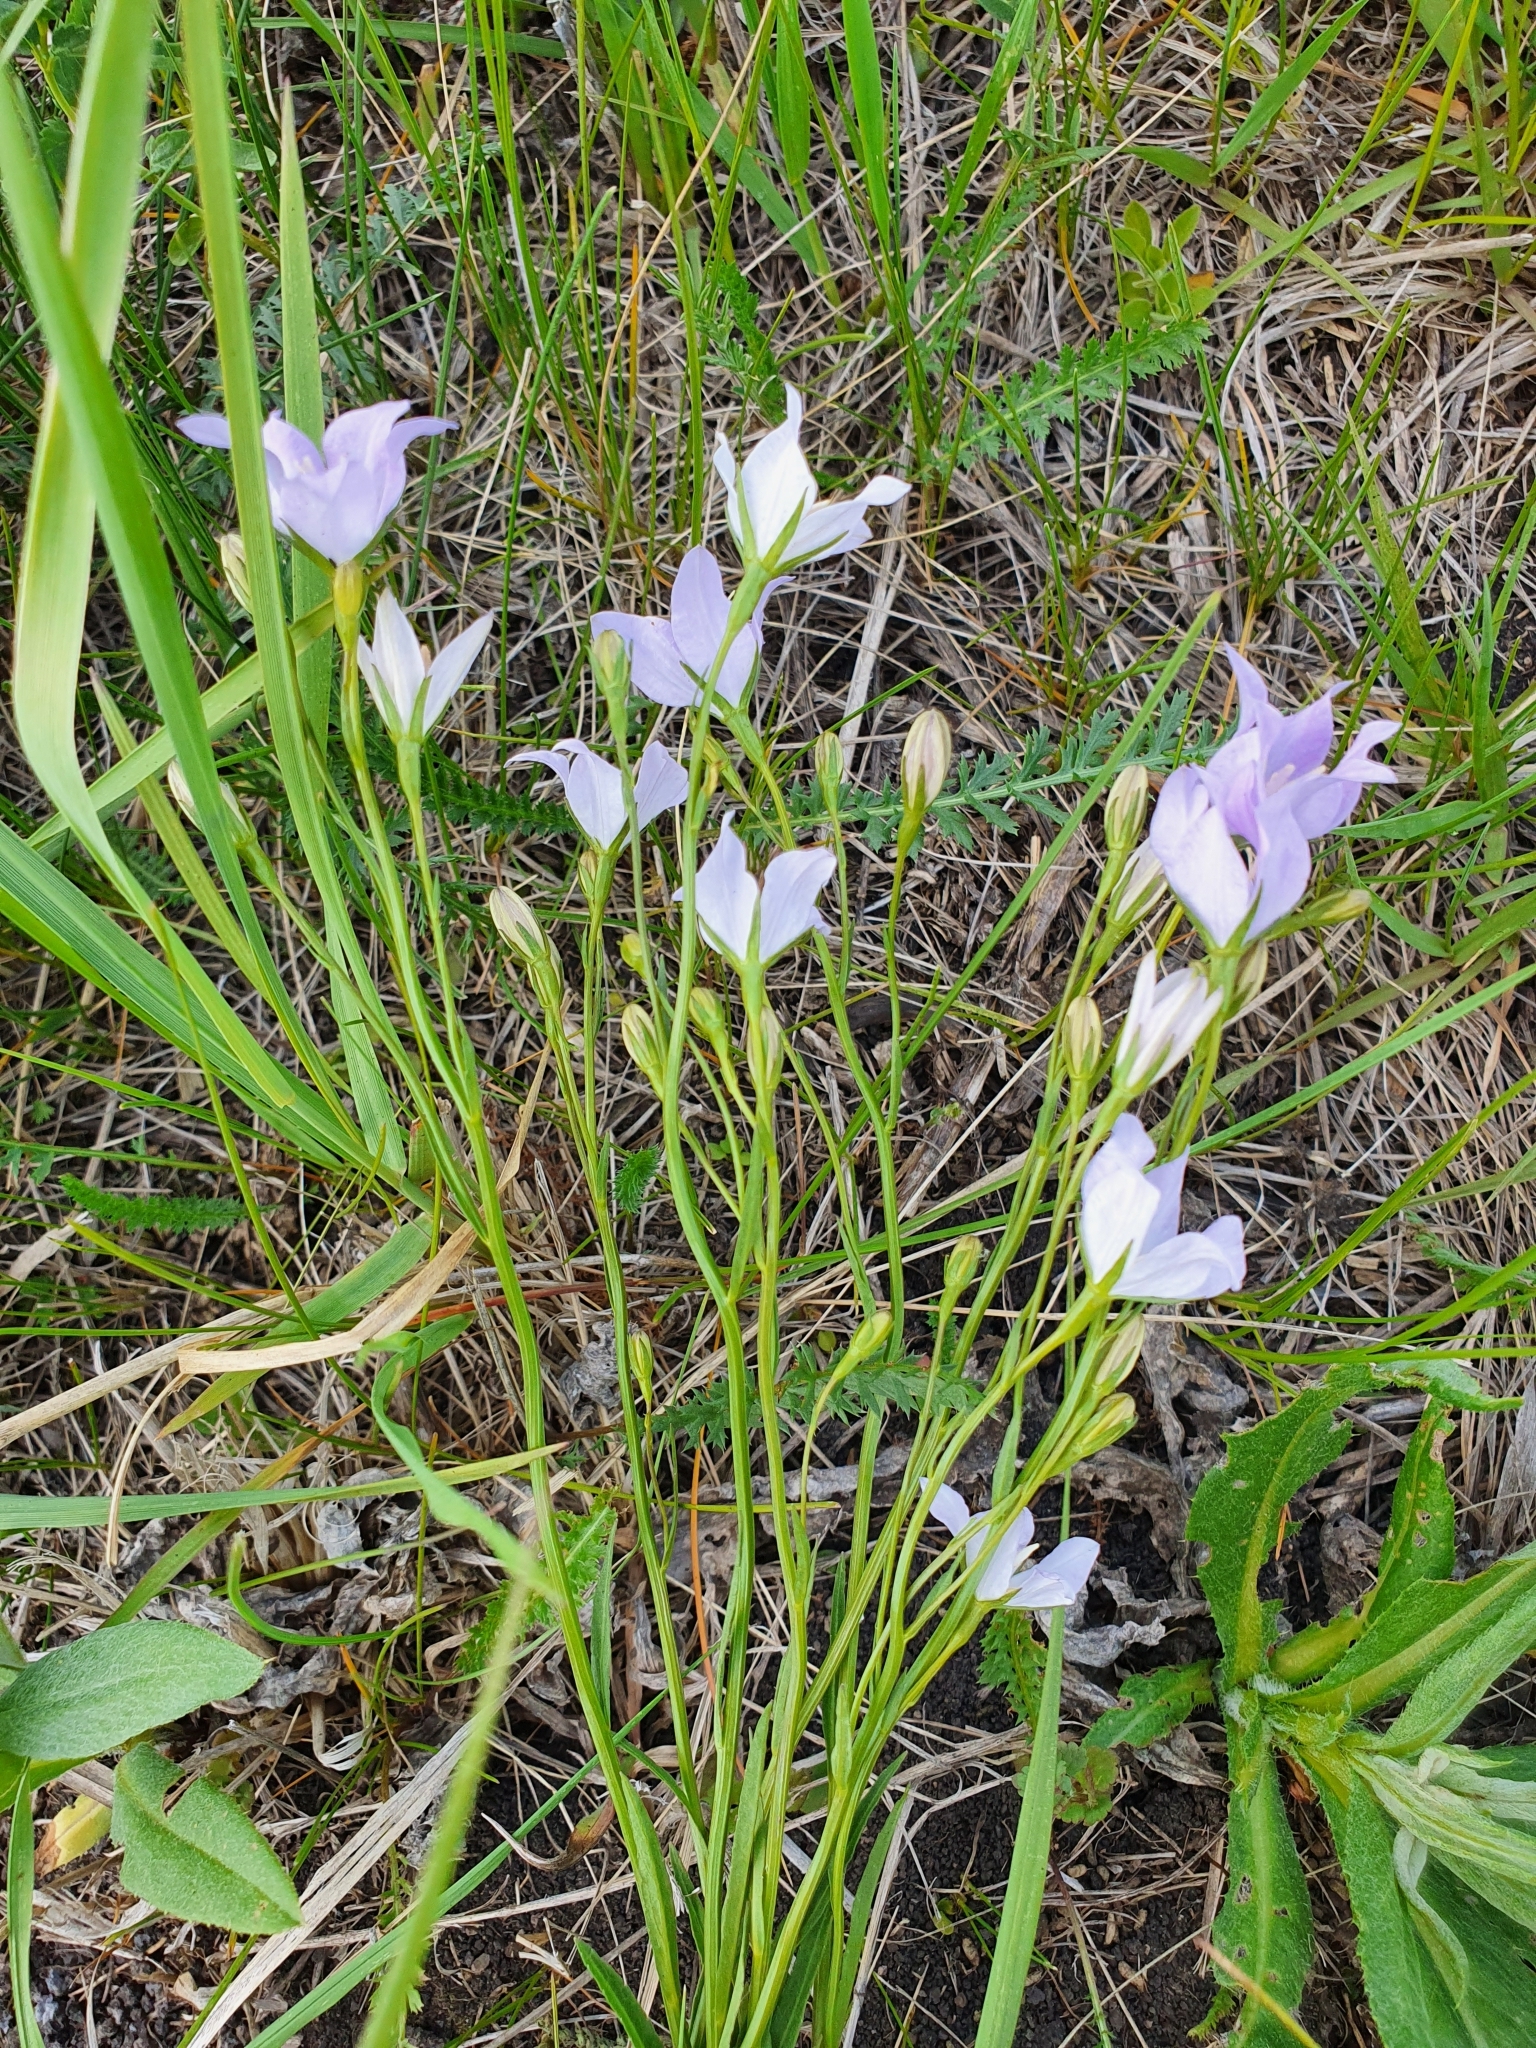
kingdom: Plantae
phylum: Tracheophyta
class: Magnoliopsida
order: Asterales
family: Campanulaceae
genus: Campanula
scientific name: Campanula stevenii
